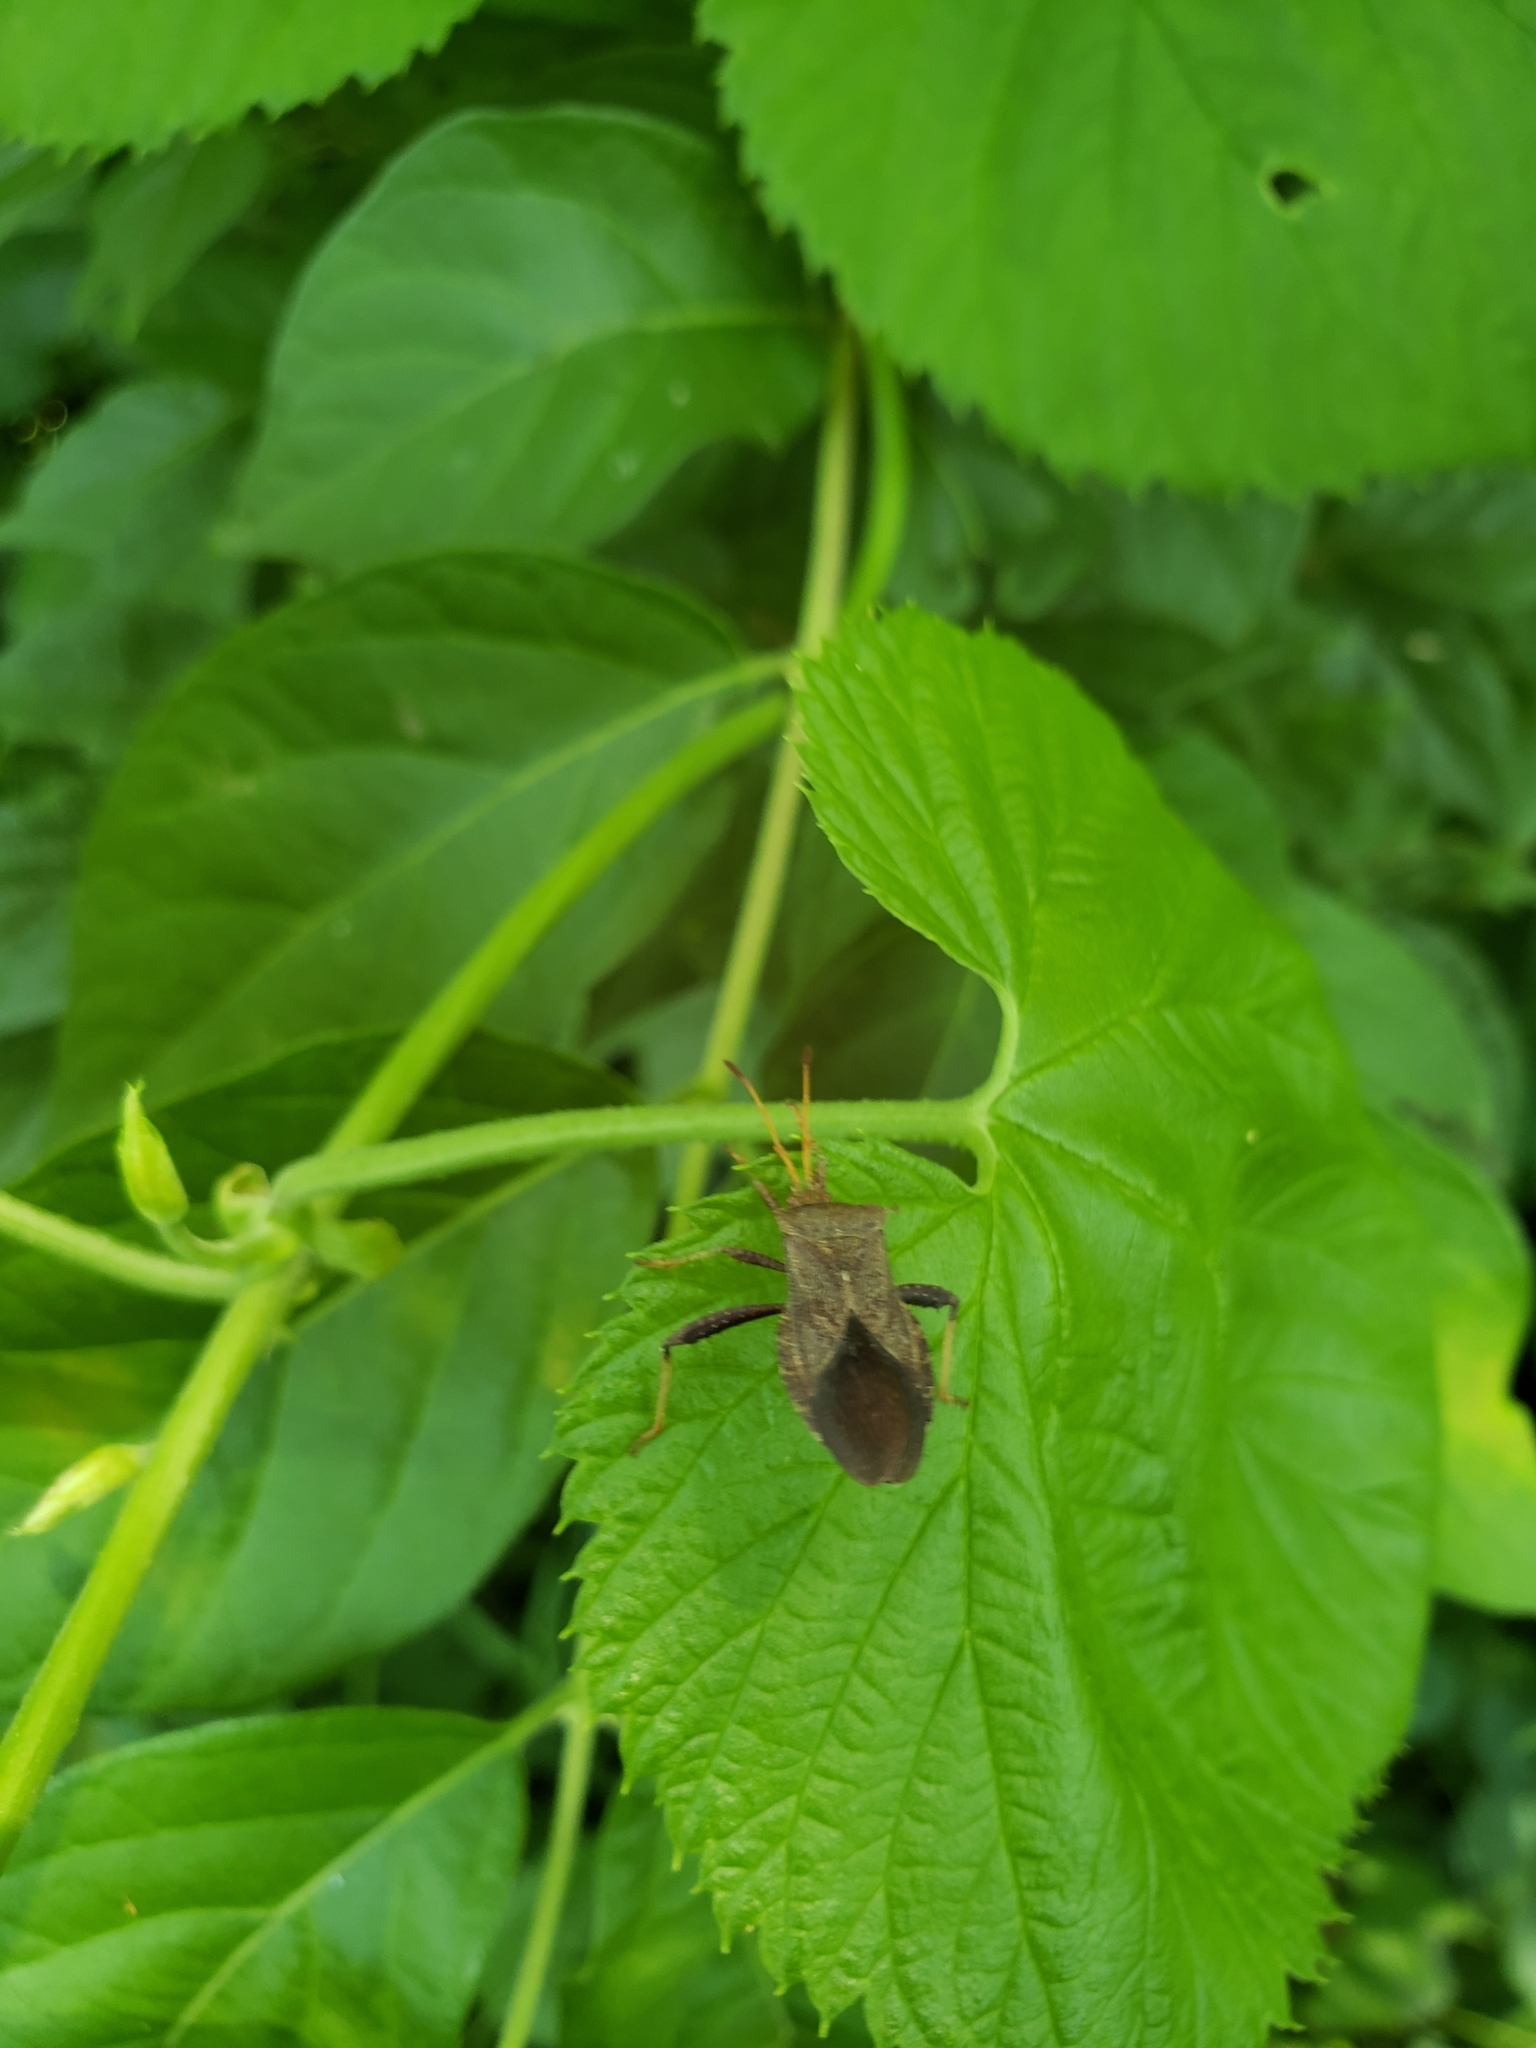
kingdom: Animalia
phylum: Arthropoda
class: Insecta
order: Hemiptera
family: Coreidae
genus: Euthochtha
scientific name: Euthochtha galeator
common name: Helmeted squash bug
